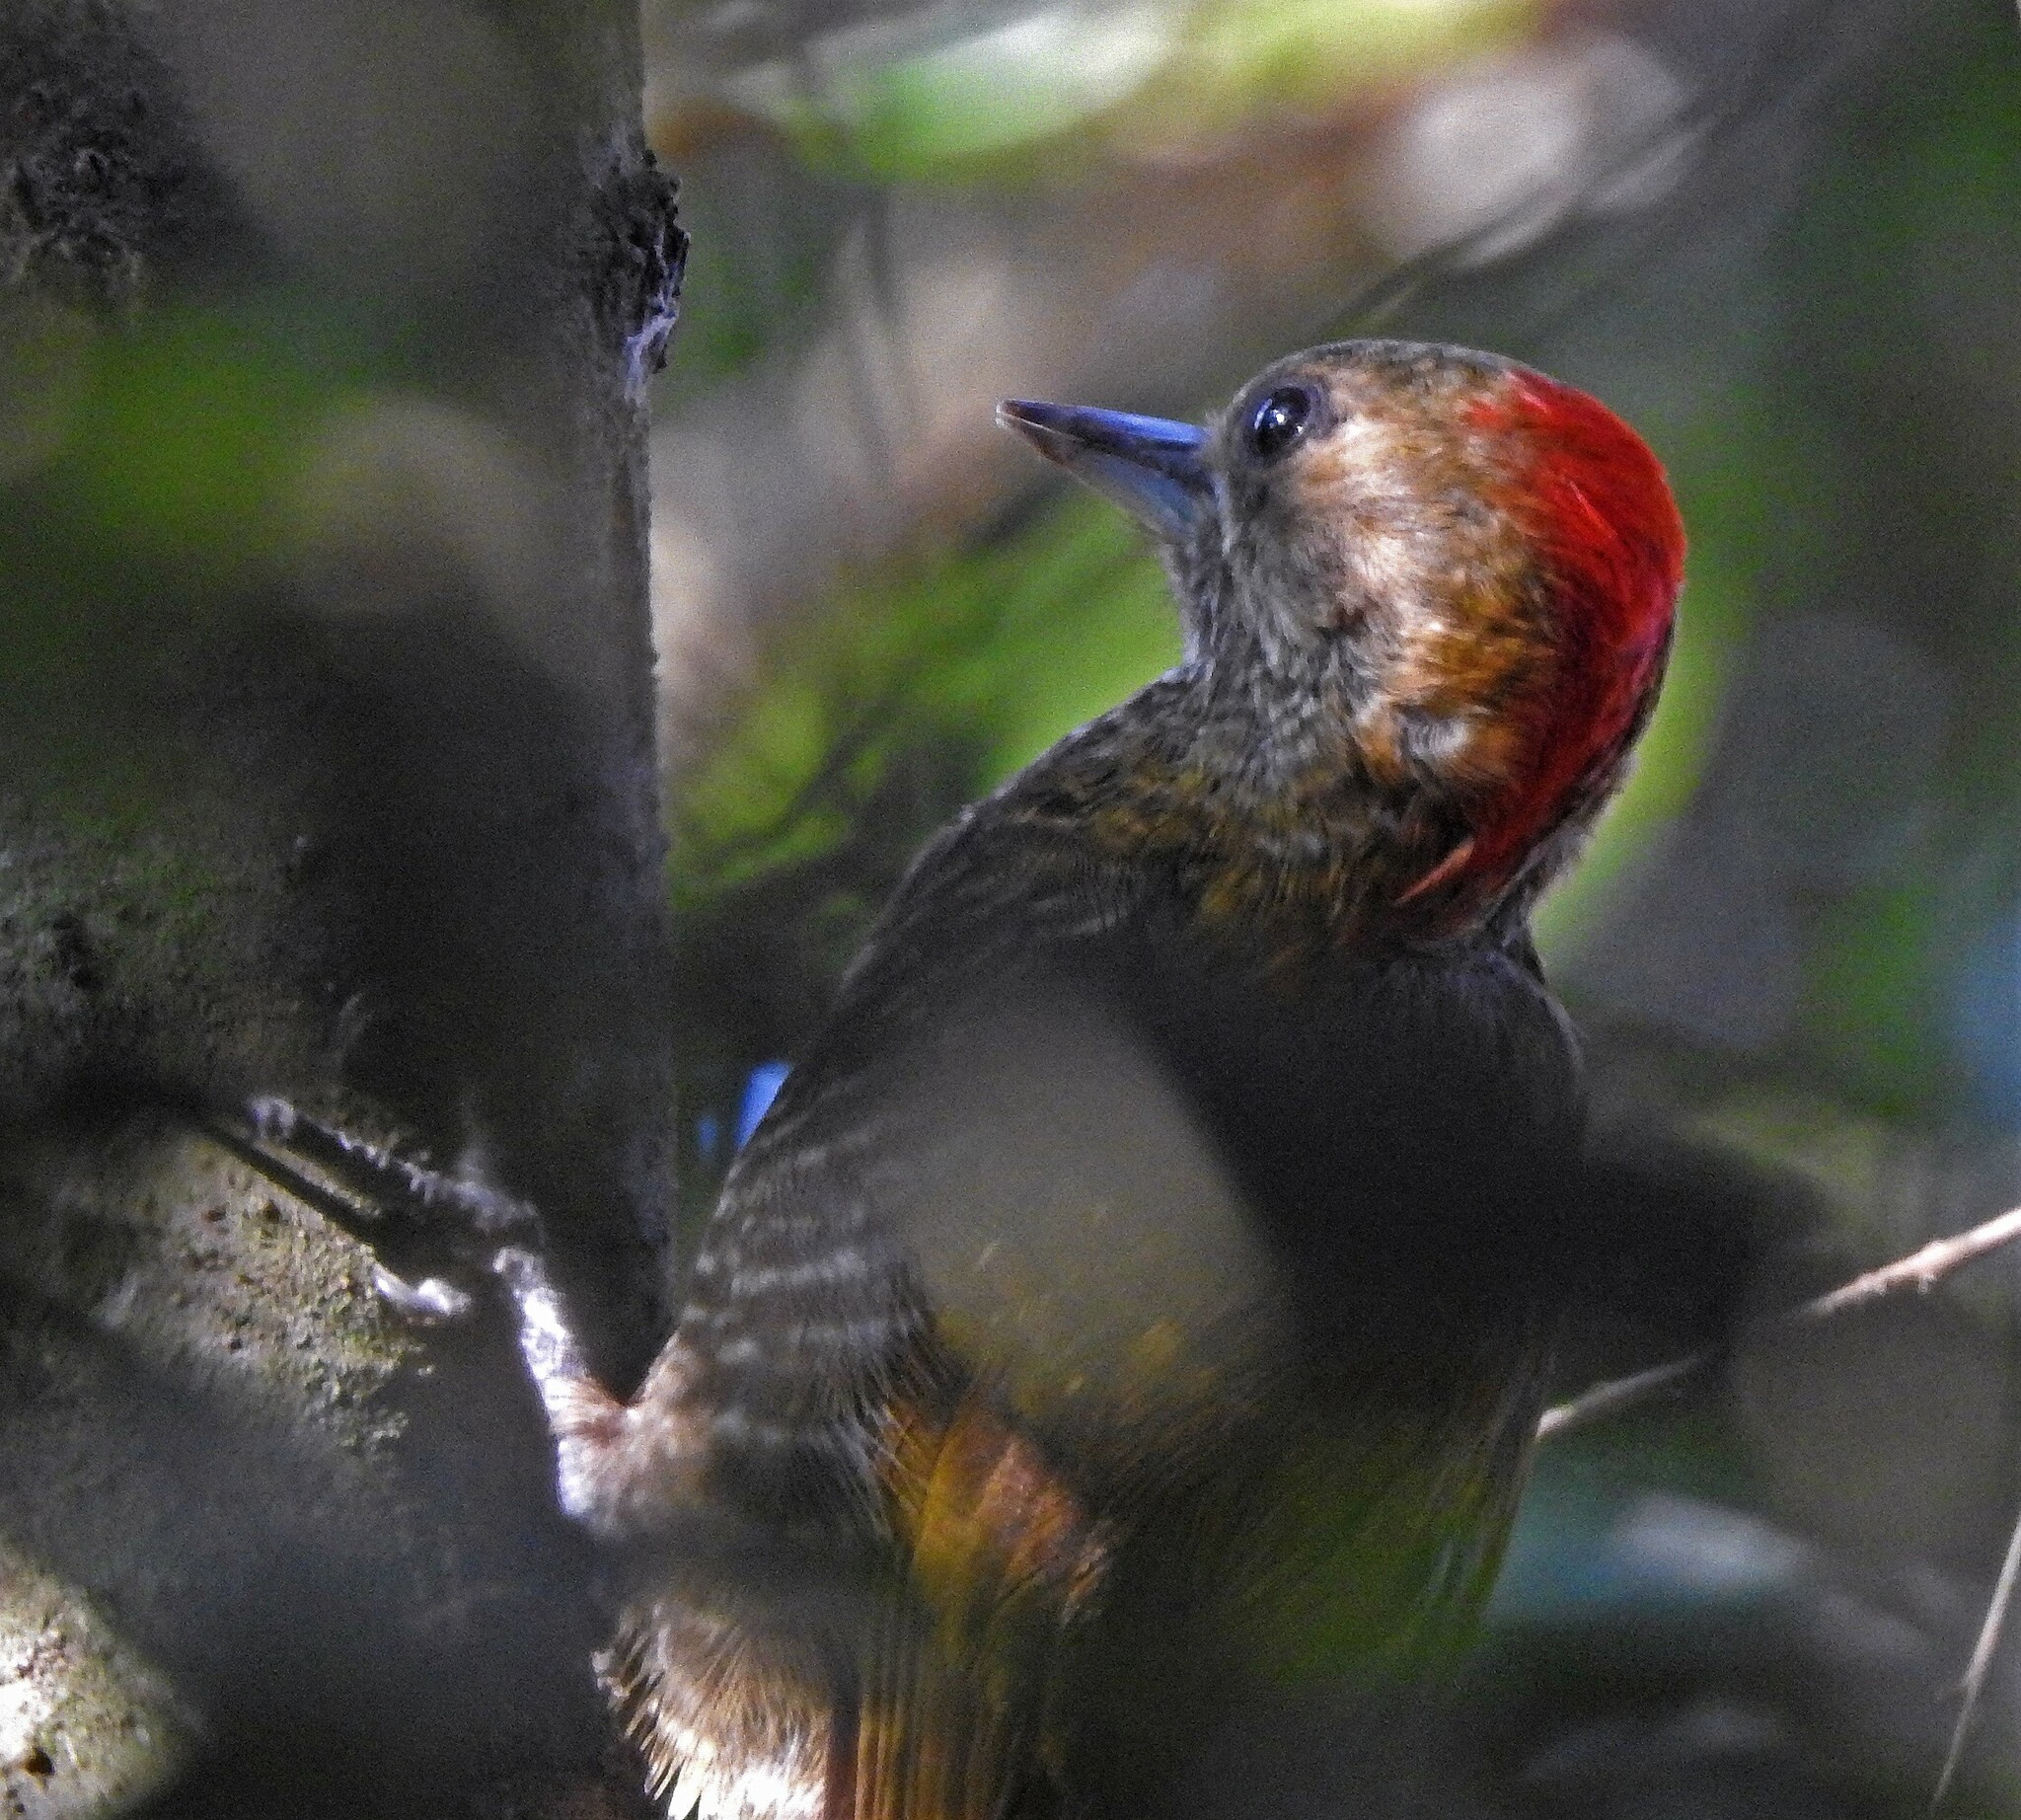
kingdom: Animalia
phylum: Chordata
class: Aves
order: Piciformes
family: Picidae
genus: Veniliornis
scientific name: Veniliornis passerinus
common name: Little woodpecker
